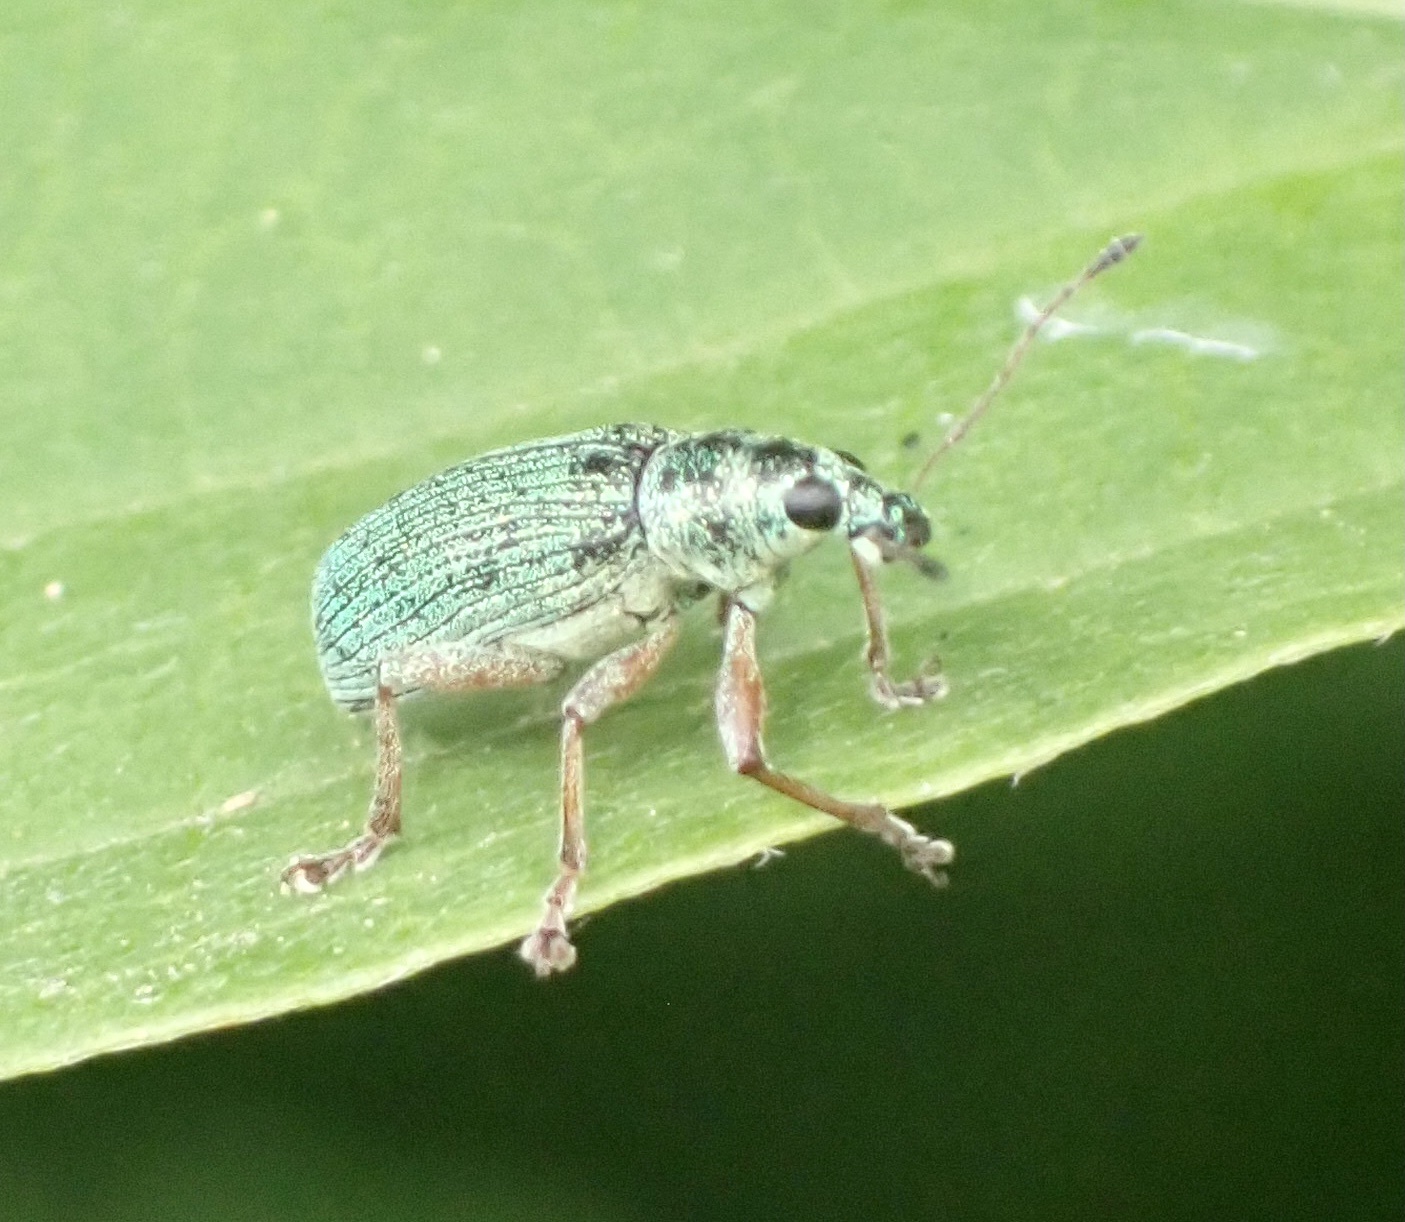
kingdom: Animalia
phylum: Arthropoda
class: Insecta
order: Coleoptera
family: Curculionidae
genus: Polydrusus
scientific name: Polydrusus formosus
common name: Weevil
